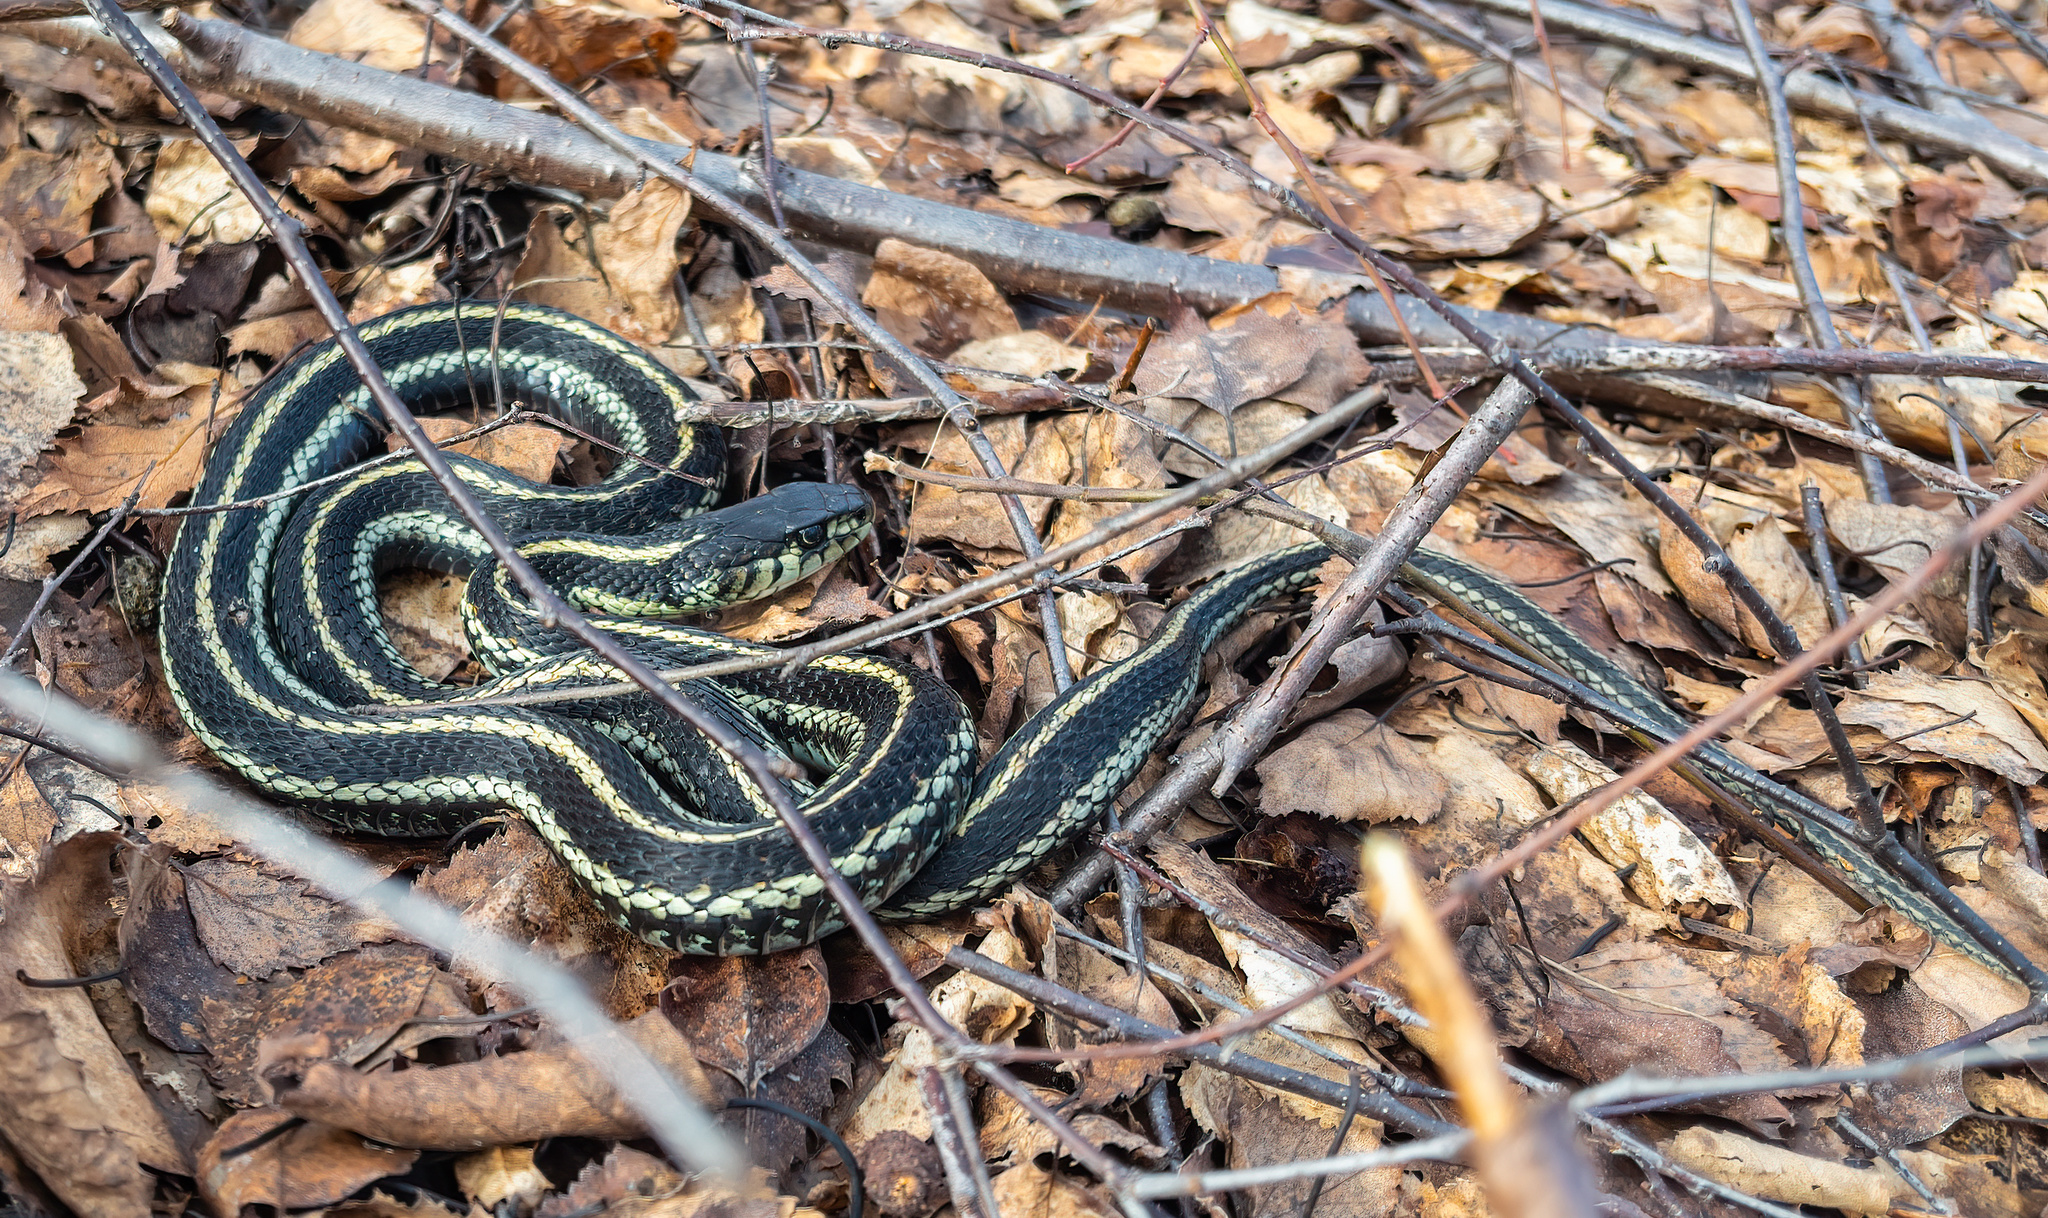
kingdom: Animalia
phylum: Chordata
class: Squamata
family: Colubridae
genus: Thamnophis
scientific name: Thamnophis sirtalis
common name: Common garter snake
